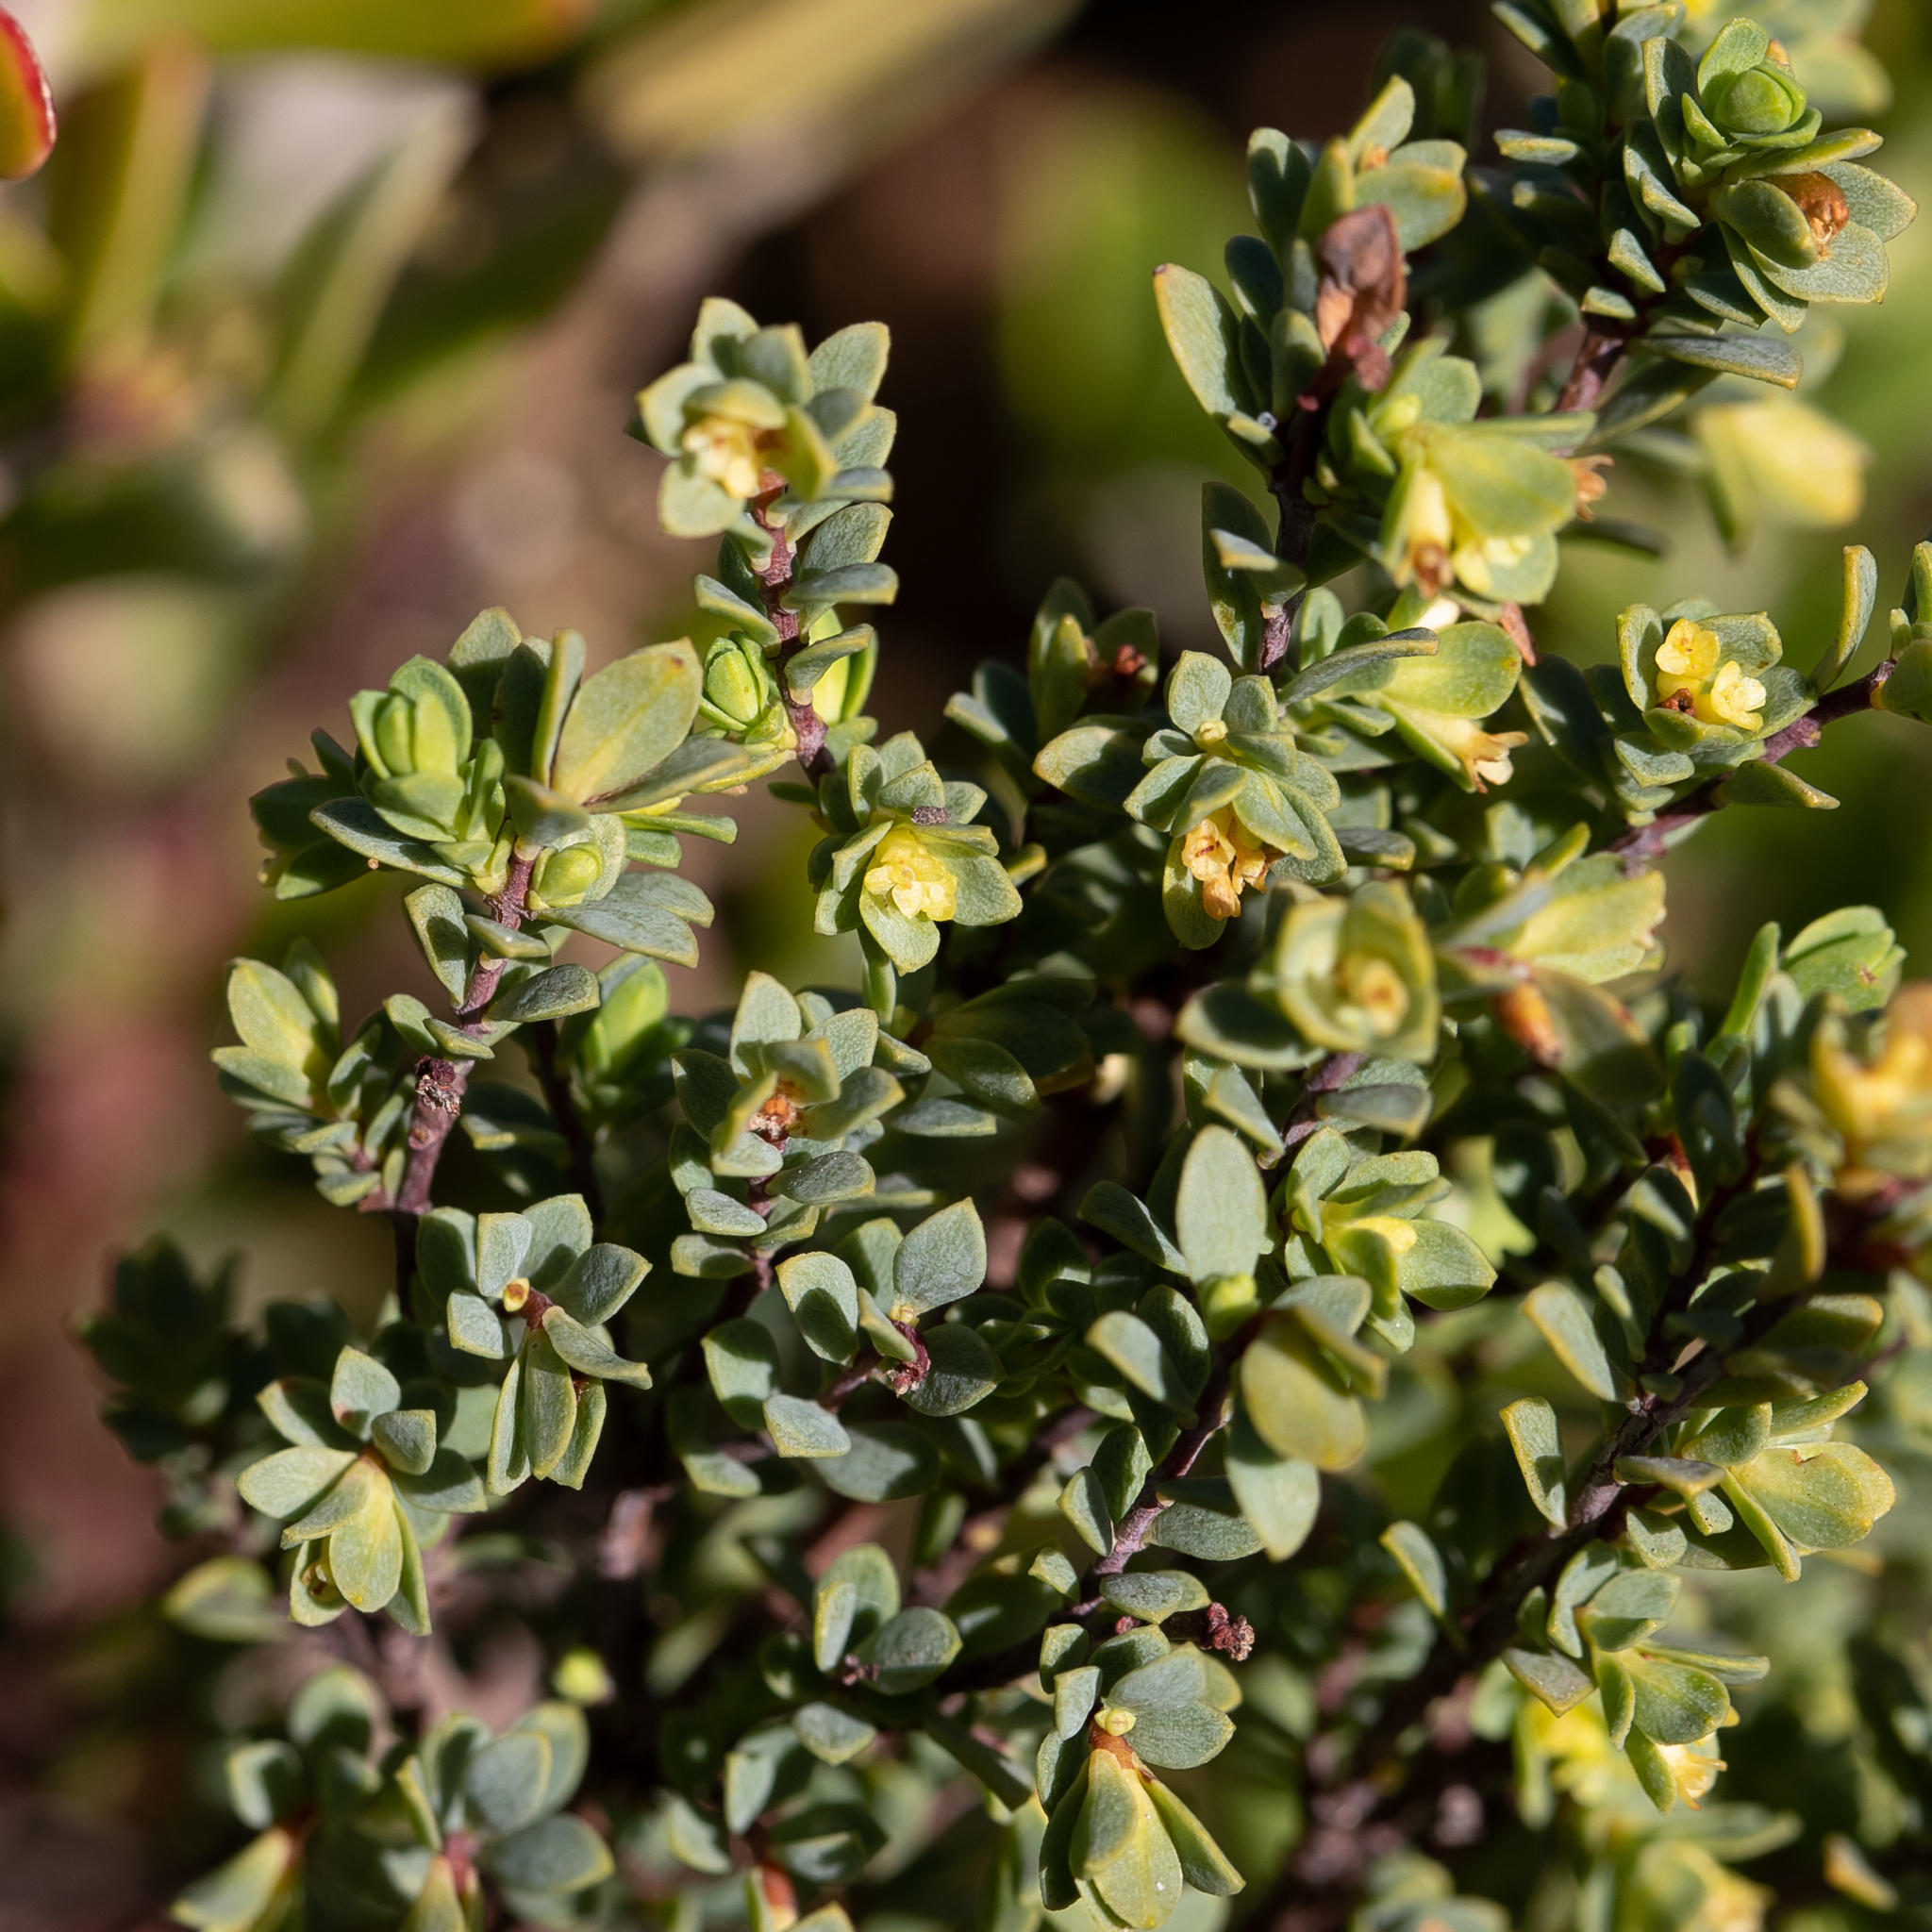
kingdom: Plantae
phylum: Tracheophyta
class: Magnoliopsida
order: Malvales
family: Thymelaeaceae
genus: Pimelea
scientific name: Pimelea serpyllifolia
